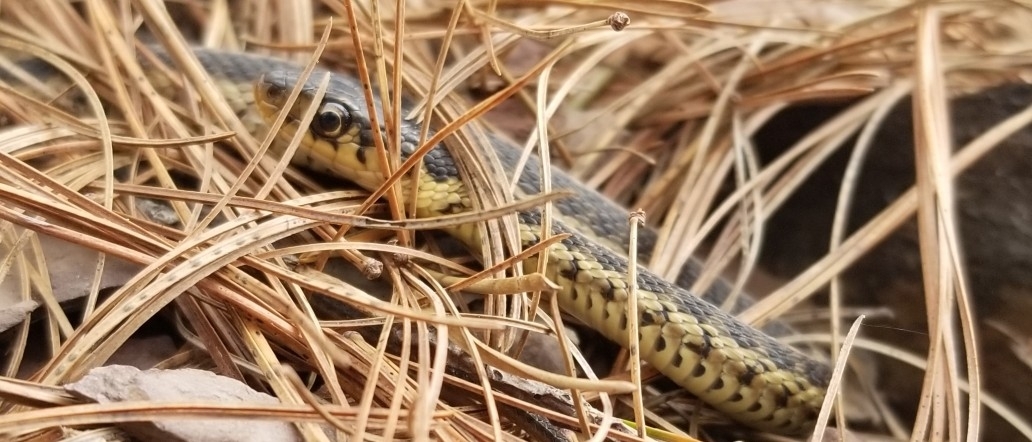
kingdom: Animalia
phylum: Chordata
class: Squamata
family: Colubridae
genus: Thamnophis
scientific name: Thamnophis sirtalis
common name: Common garter snake
